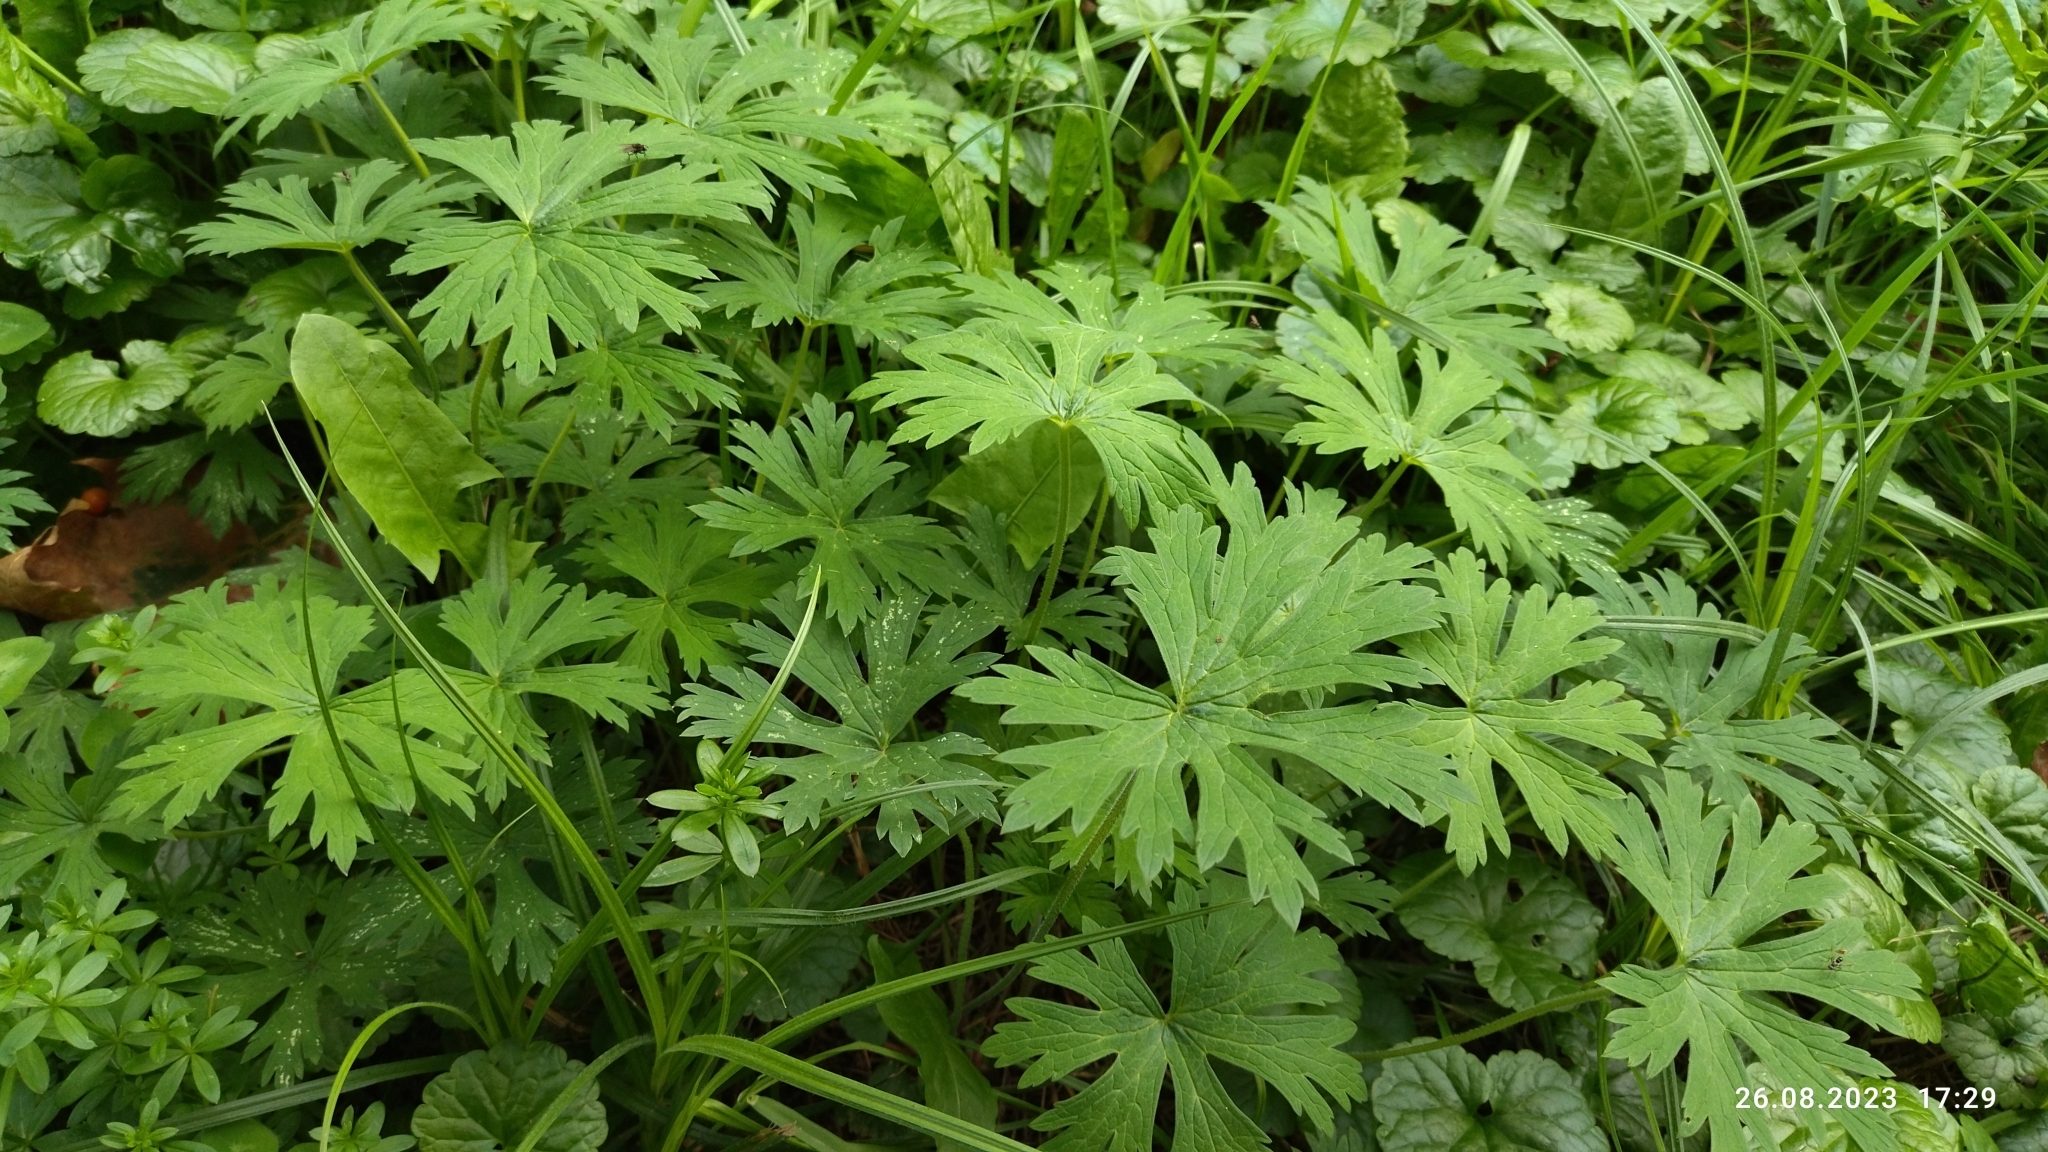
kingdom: Plantae
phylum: Tracheophyta
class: Magnoliopsida
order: Geraniales
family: Geraniaceae
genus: Geranium
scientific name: Geranium pratense
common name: Meadow crane's-bill
